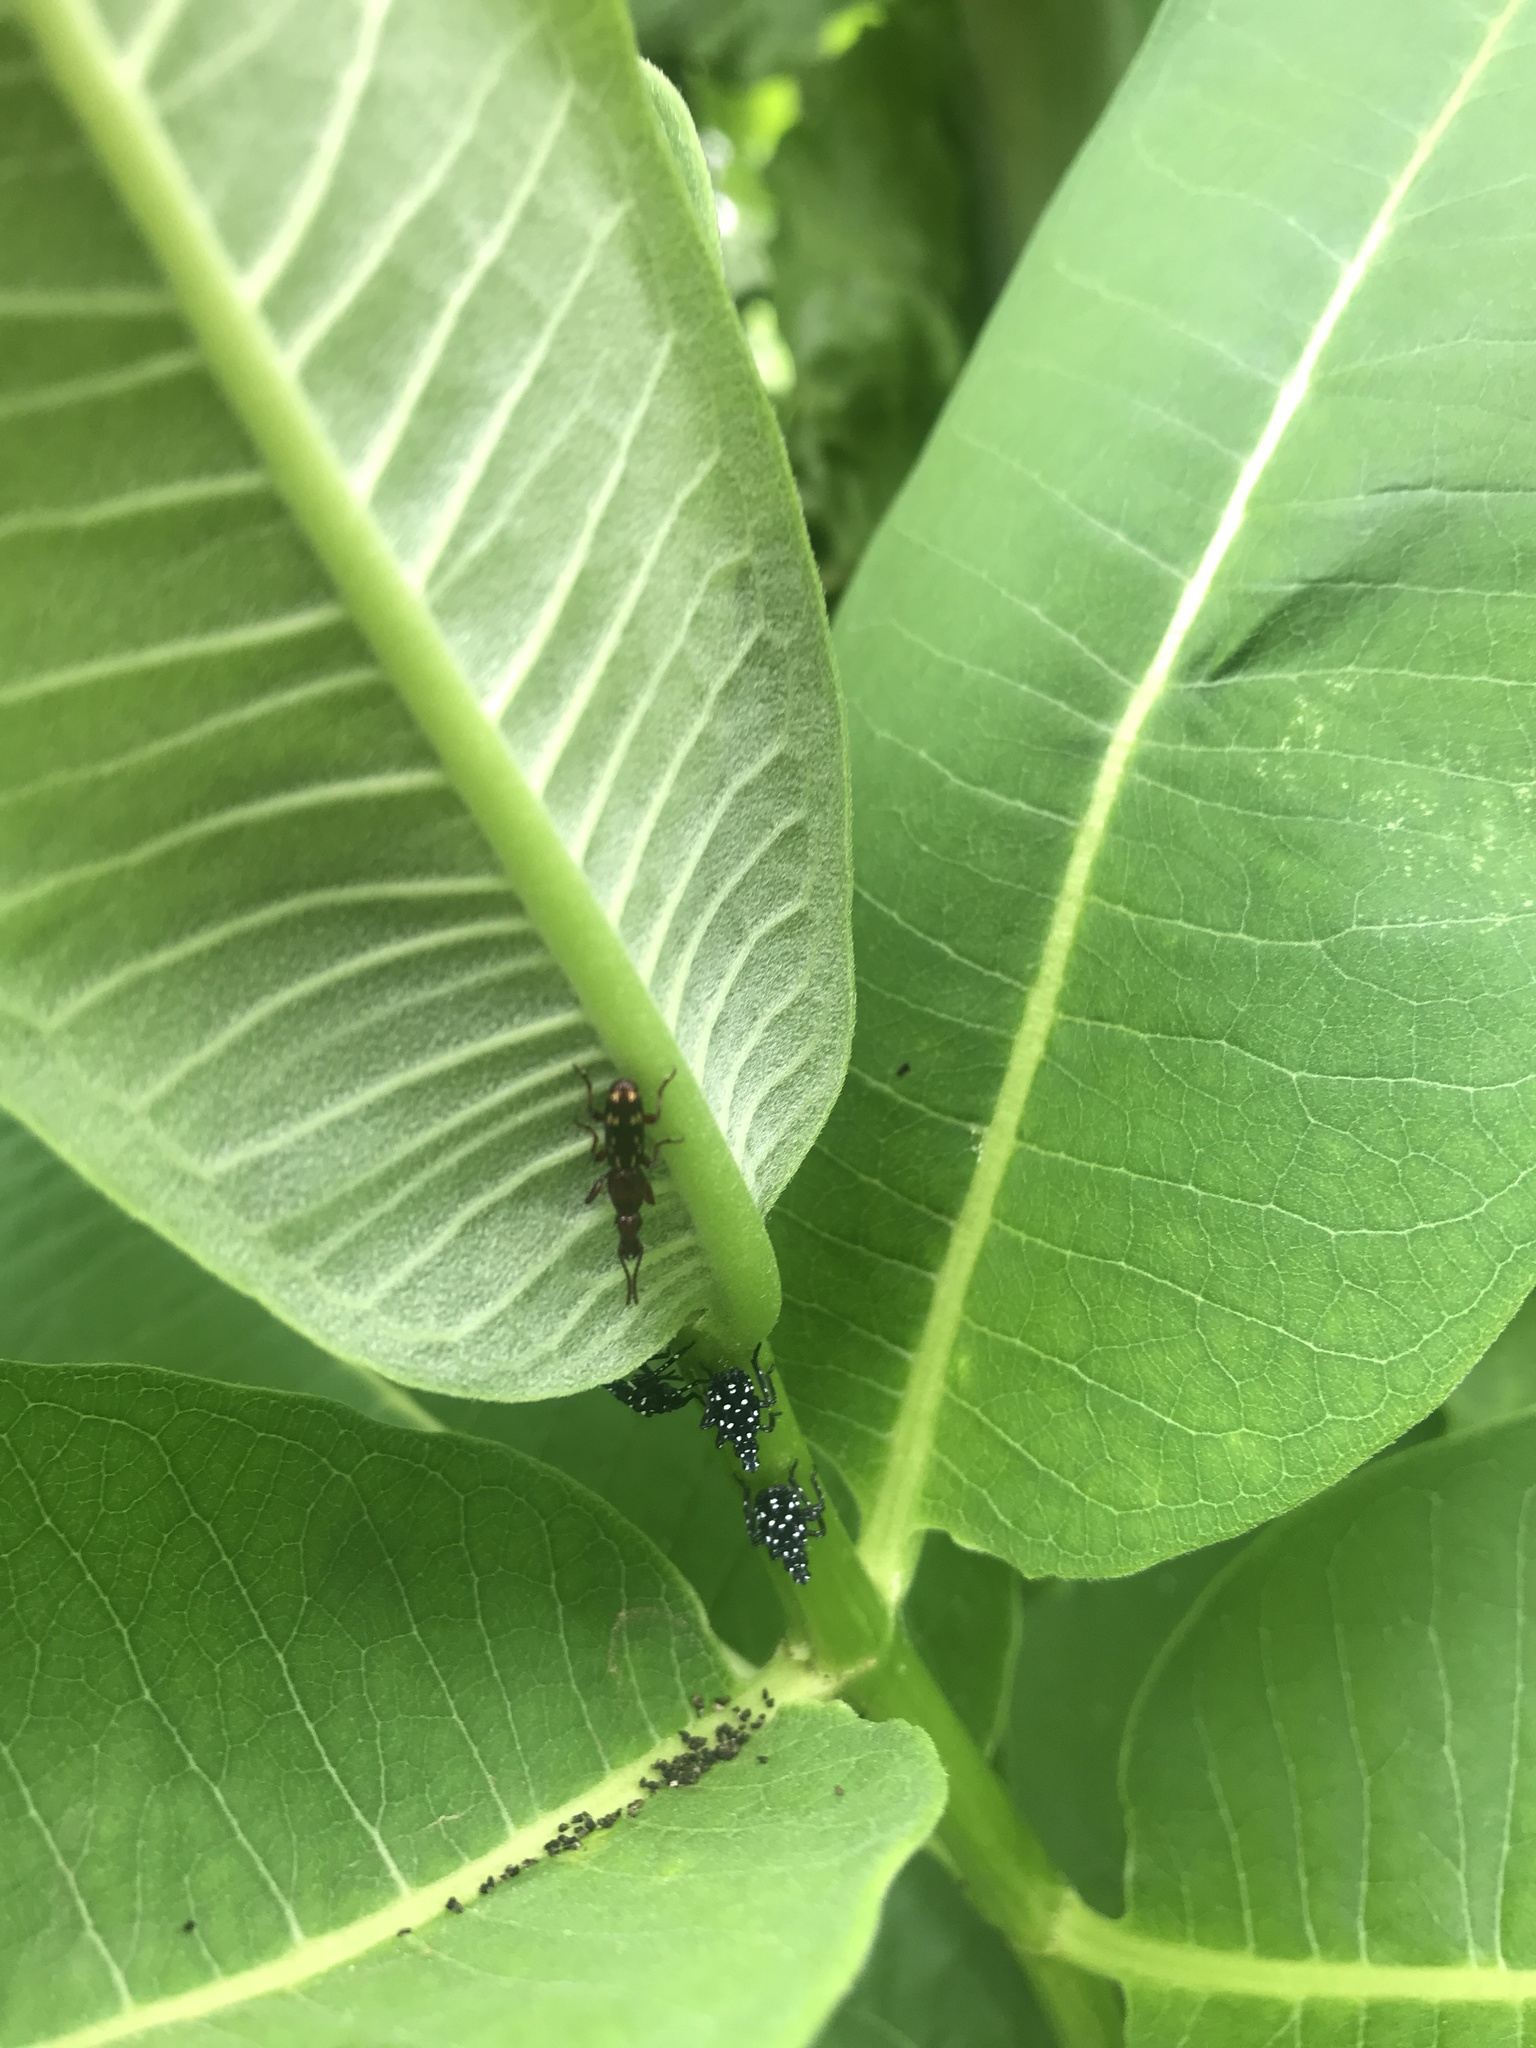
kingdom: Animalia
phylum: Arthropoda
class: Insecta
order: Hemiptera
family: Fulgoridae
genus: Lycorma
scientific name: Lycorma delicatula
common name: Spotted lanternfly
